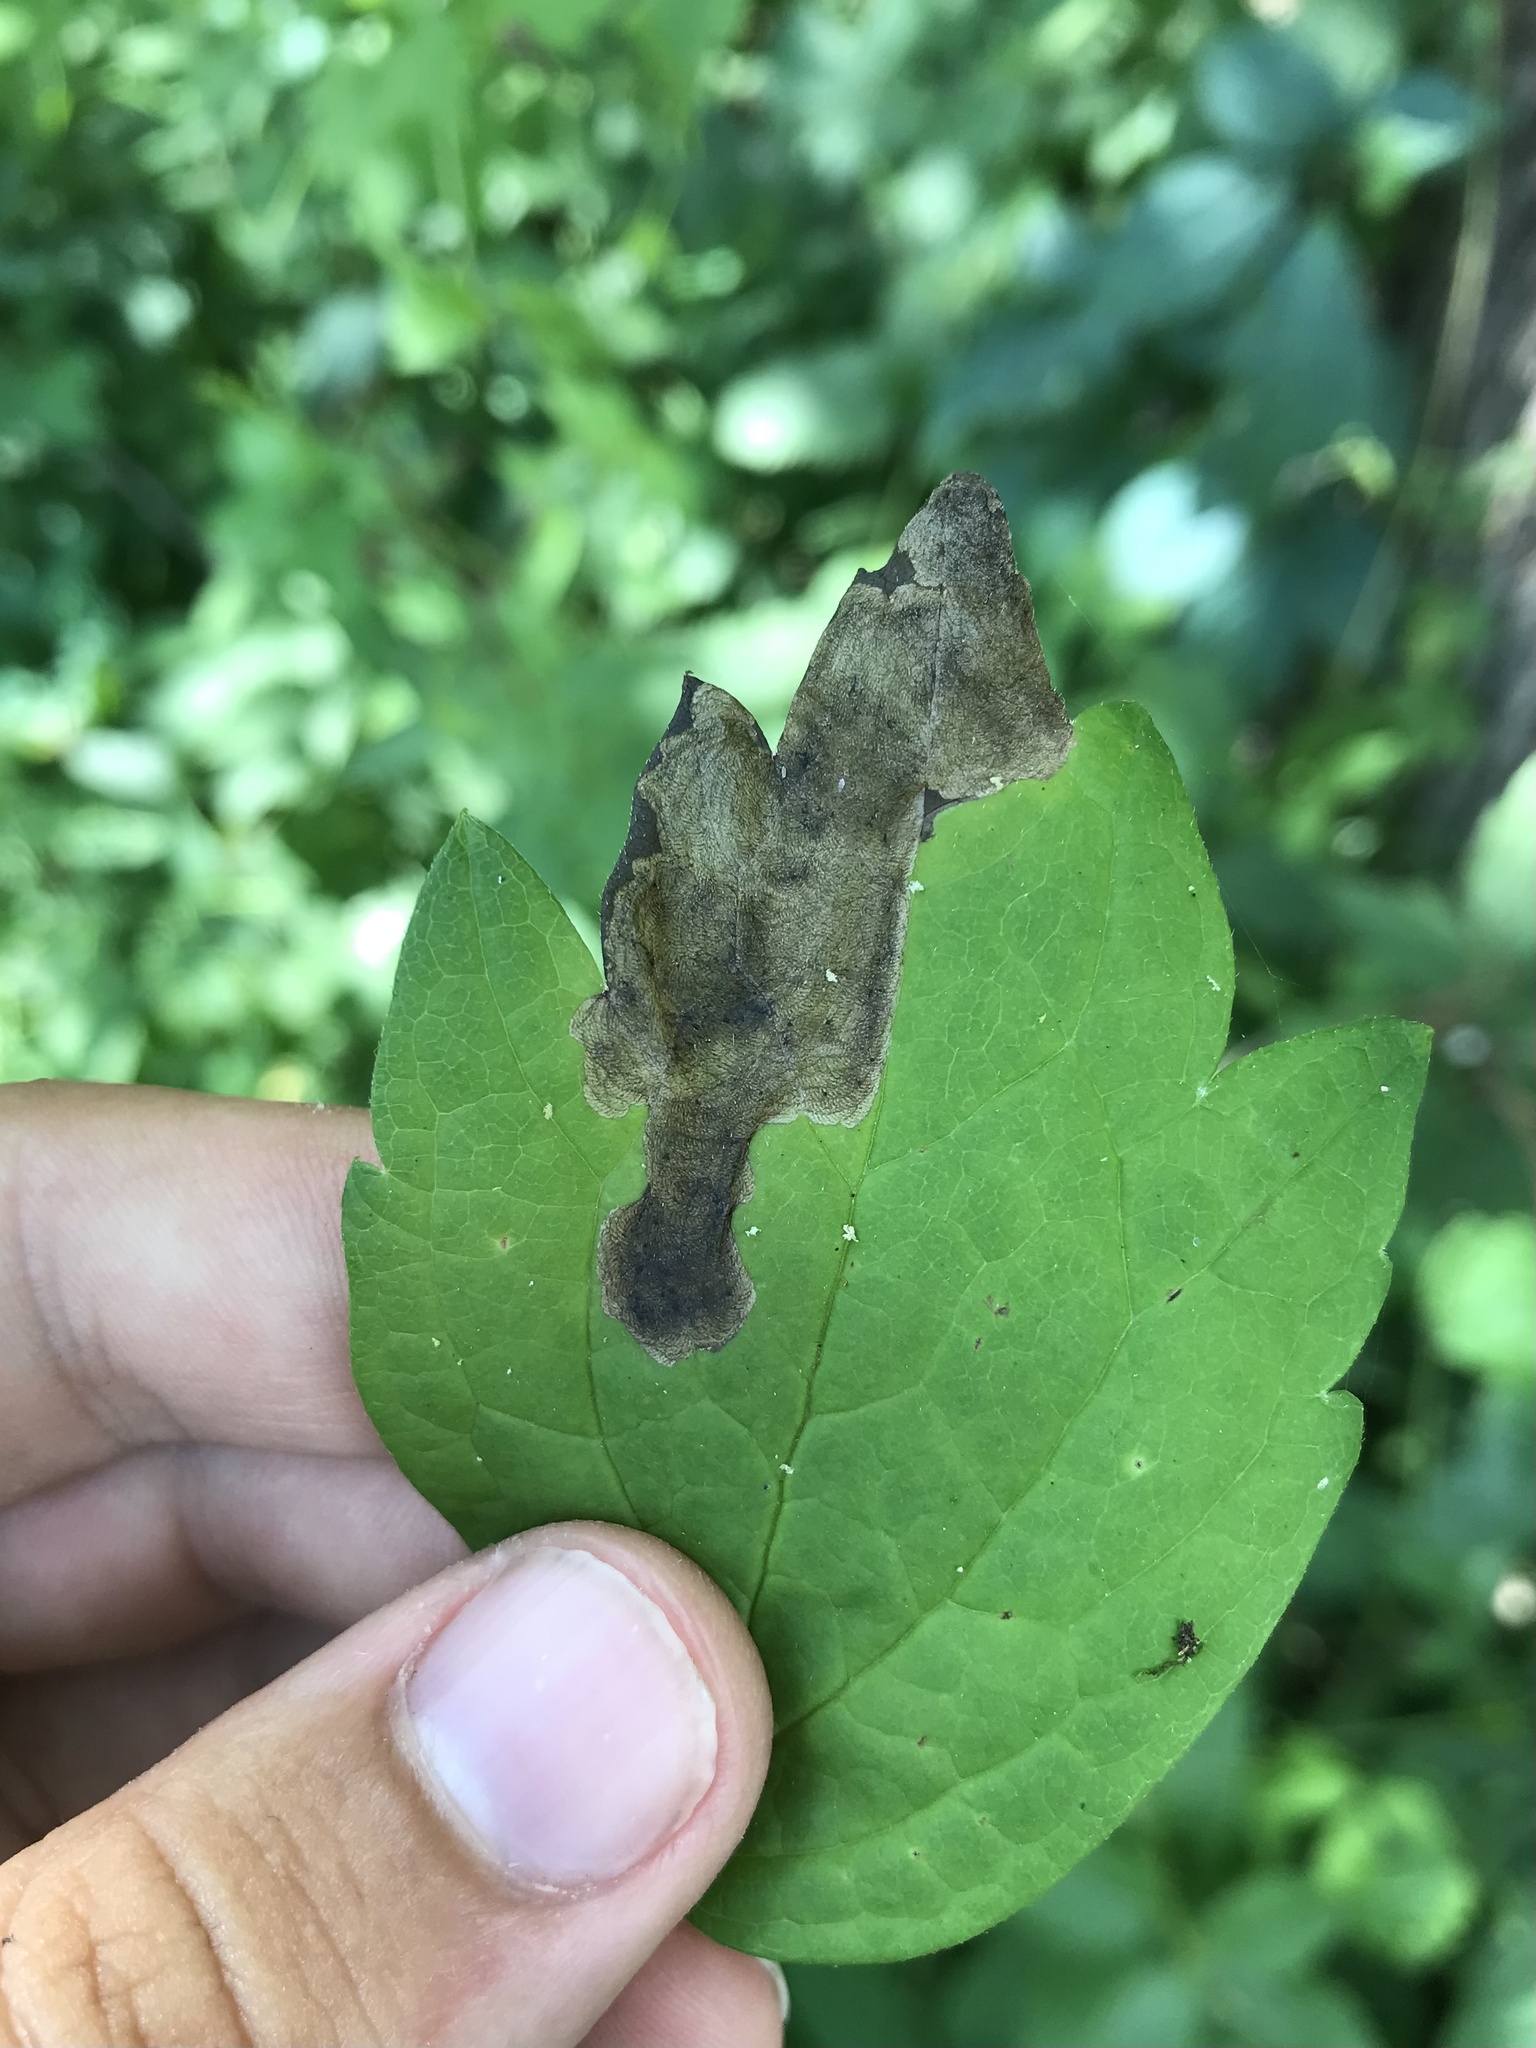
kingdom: Animalia
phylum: Arthropoda
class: Insecta
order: Diptera
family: Agromyzidae
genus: Phytomyza
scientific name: Phytomyza davisii
